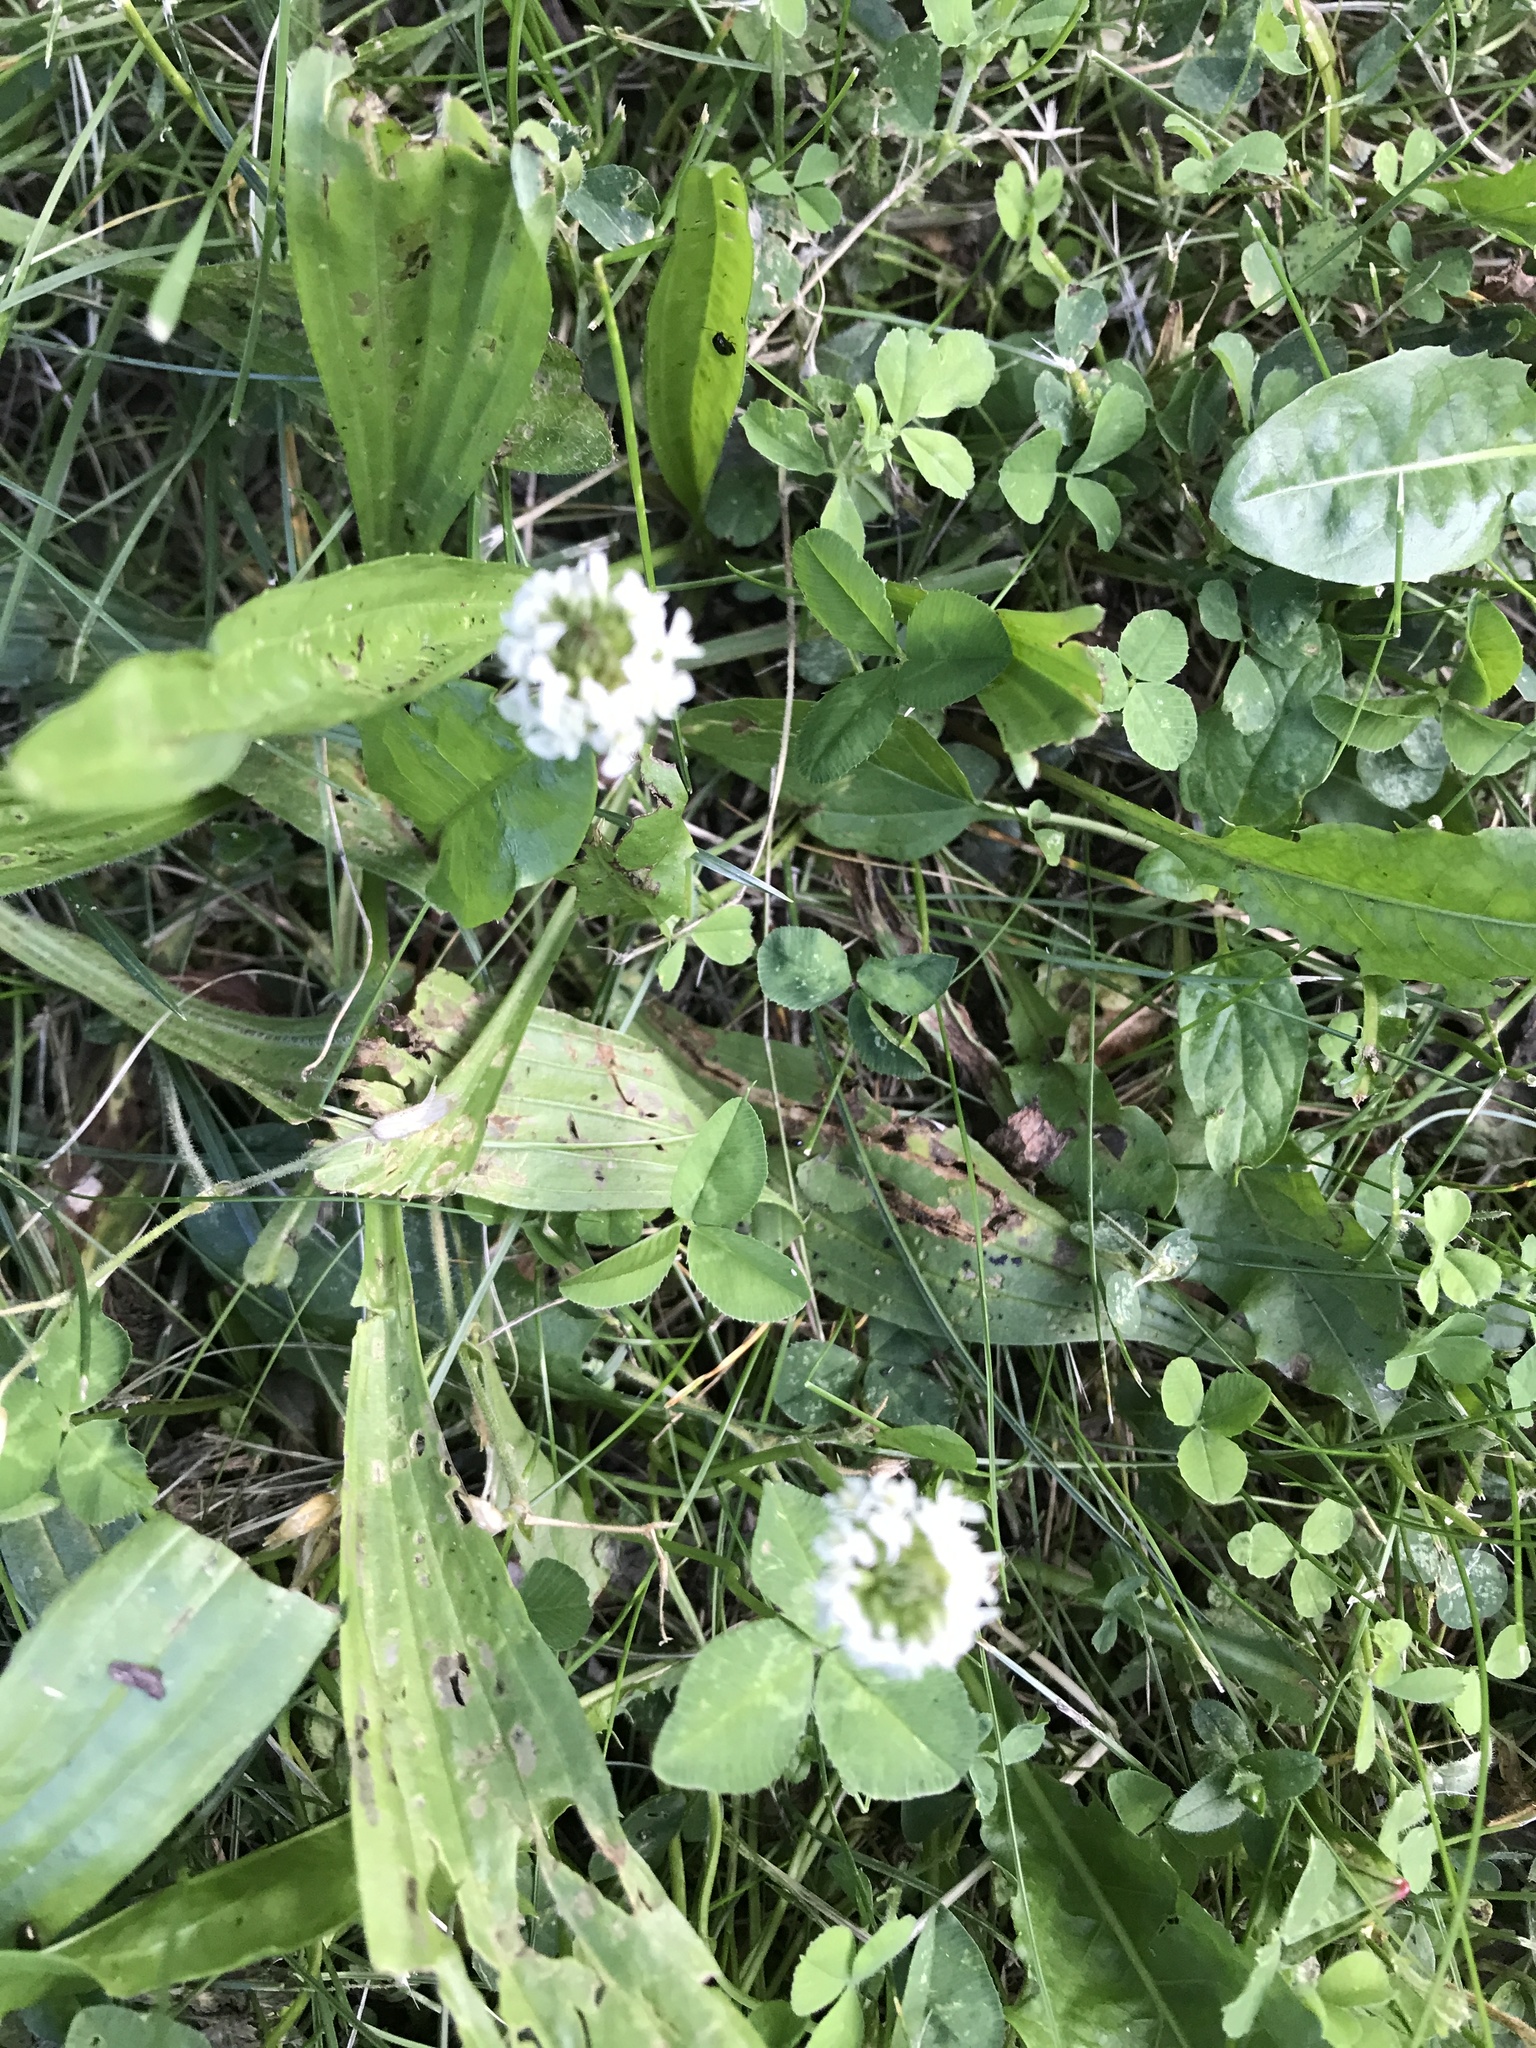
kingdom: Plantae
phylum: Tracheophyta
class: Magnoliopsida
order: Fabales
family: Fabaceae
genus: Trifolium
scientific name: Trifolium repens
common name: White clover
